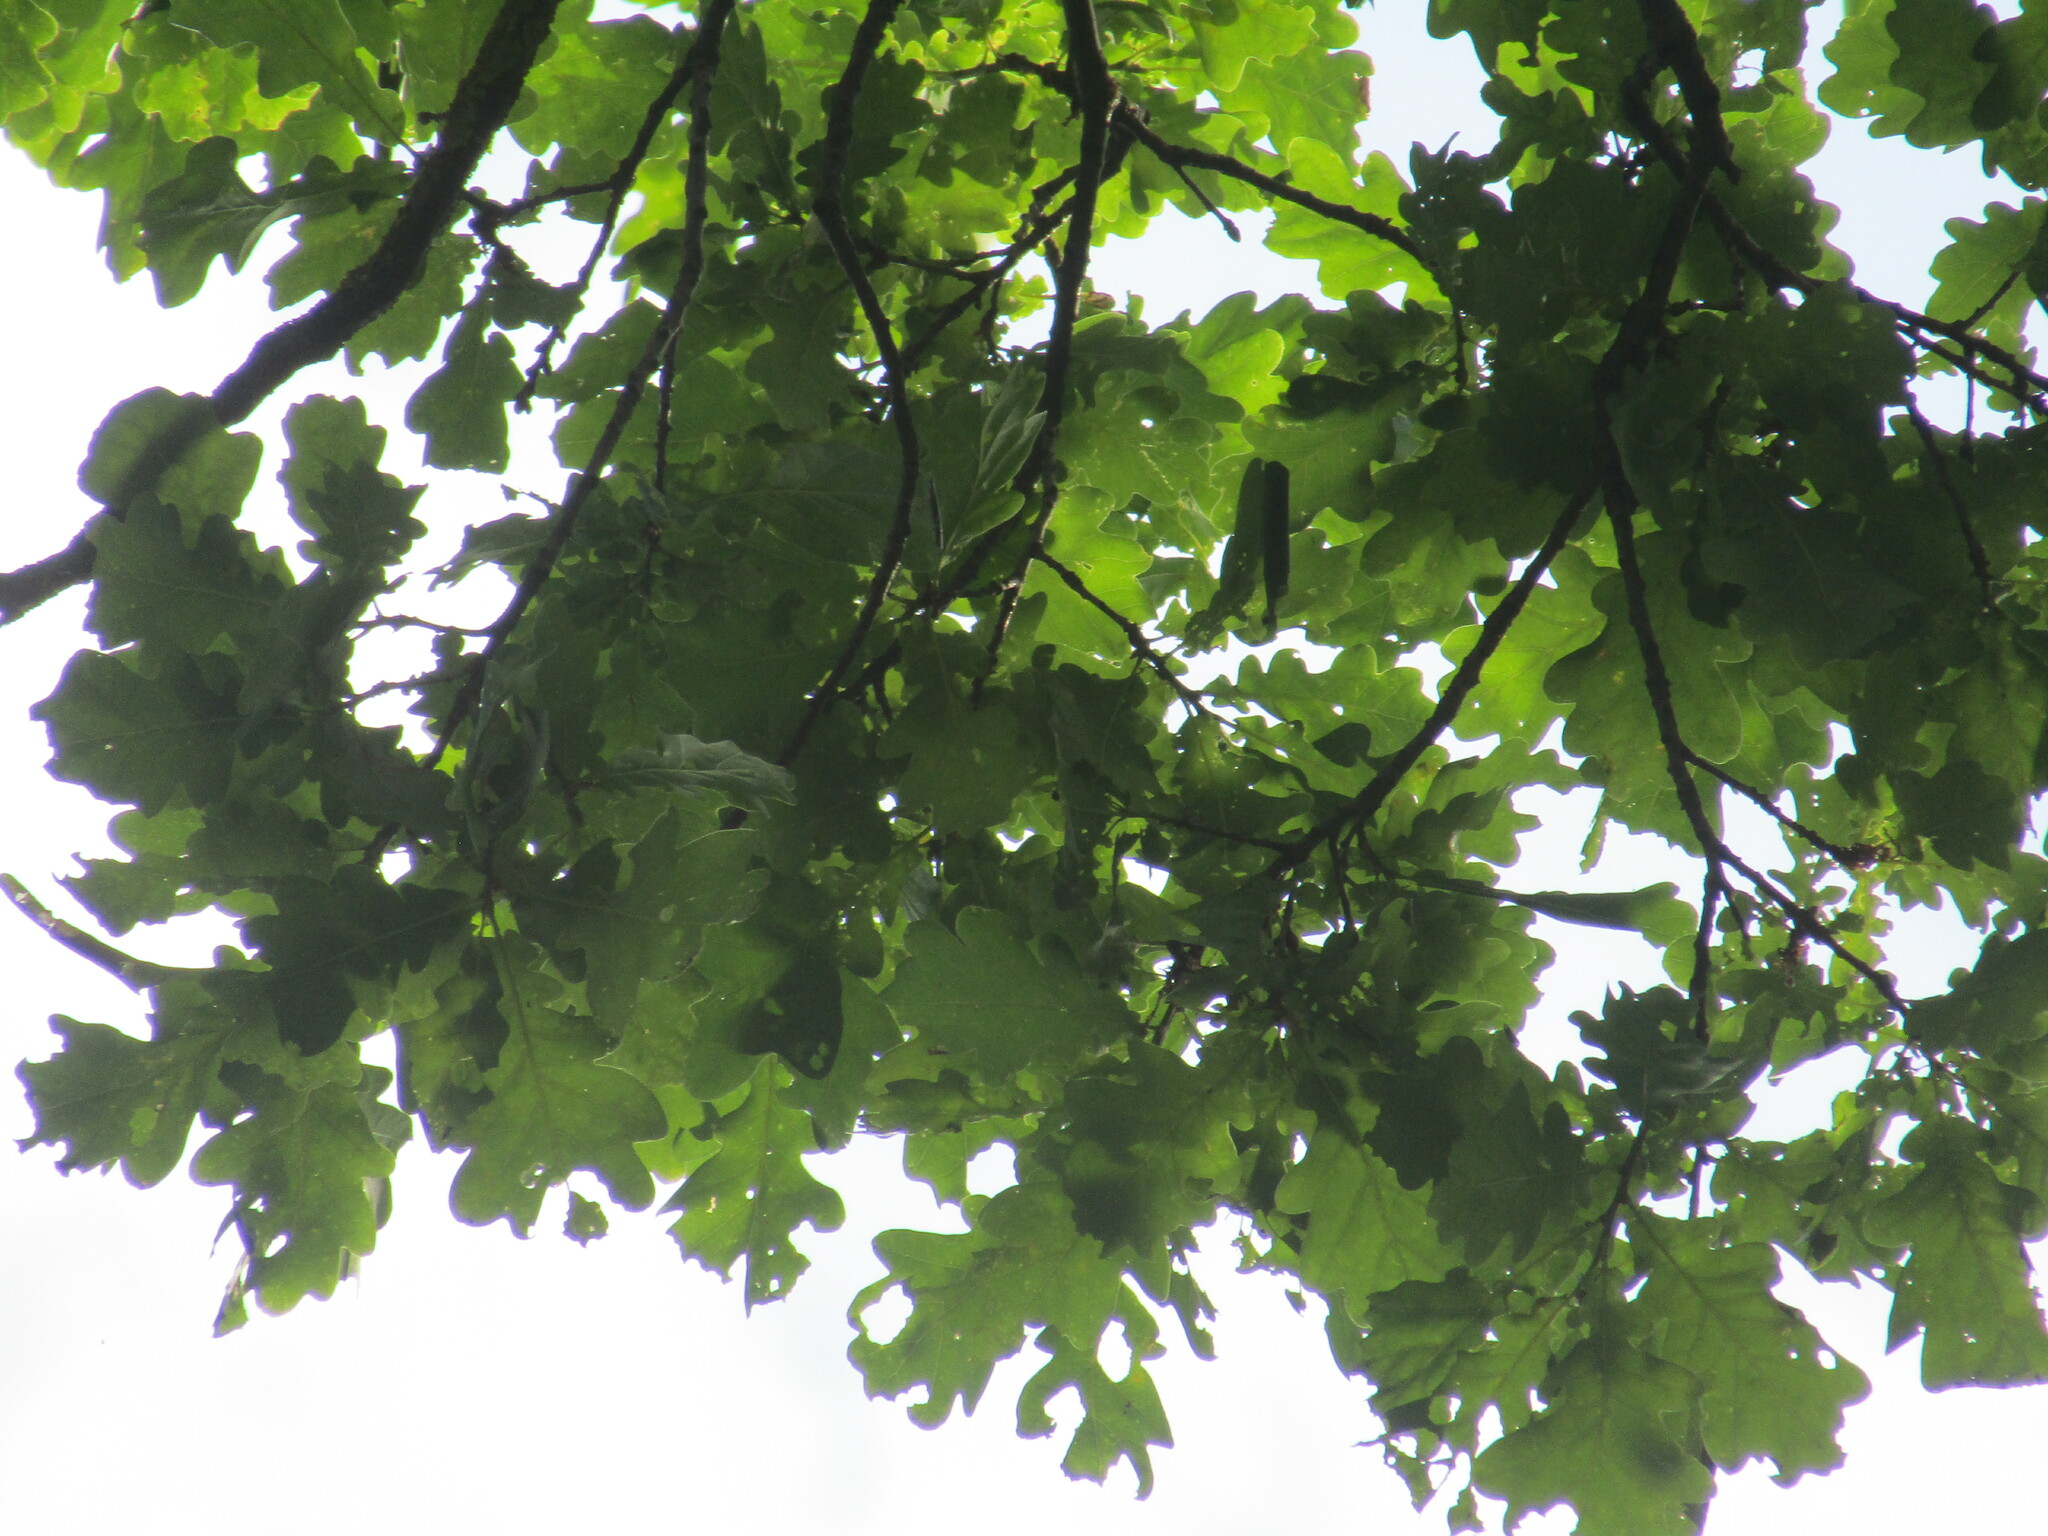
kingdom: Plantae
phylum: Tracheophyta
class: Magnoliopsida
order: Fagales
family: Fagaceae
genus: Quercus
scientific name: Quercus robur
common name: Pedunculate oak
